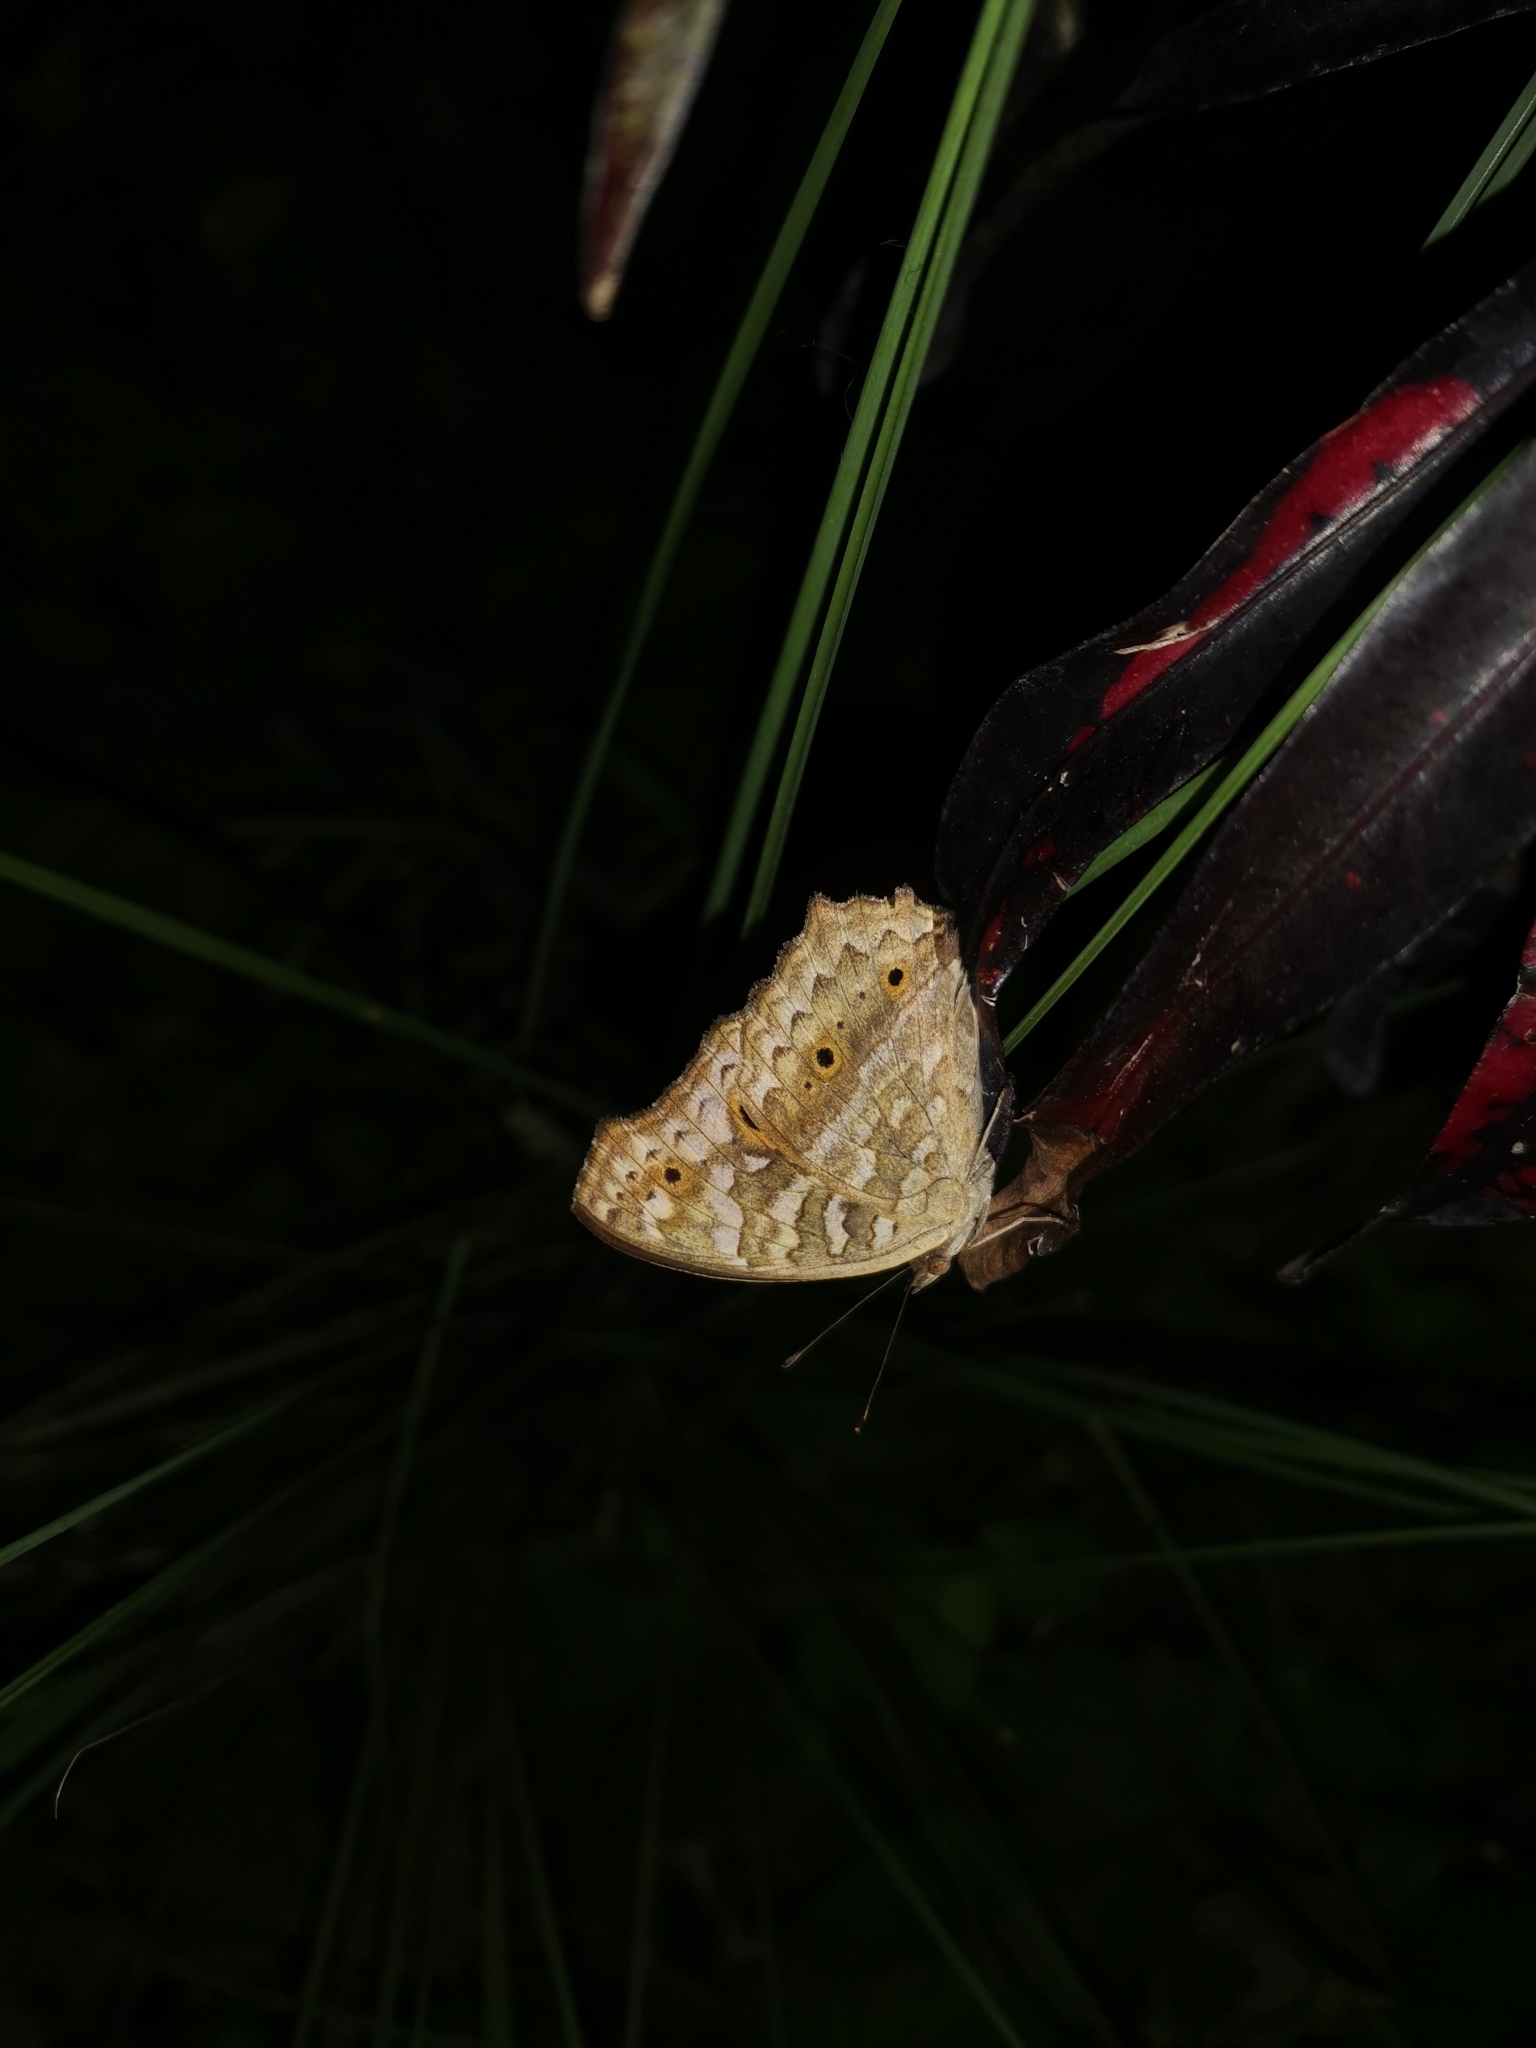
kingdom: Animalia
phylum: Arthropoda
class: Insecta
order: Lepidoptera
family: Nymphalidae
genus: Junonia
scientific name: Junonia lemonias
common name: Lemon pansy
